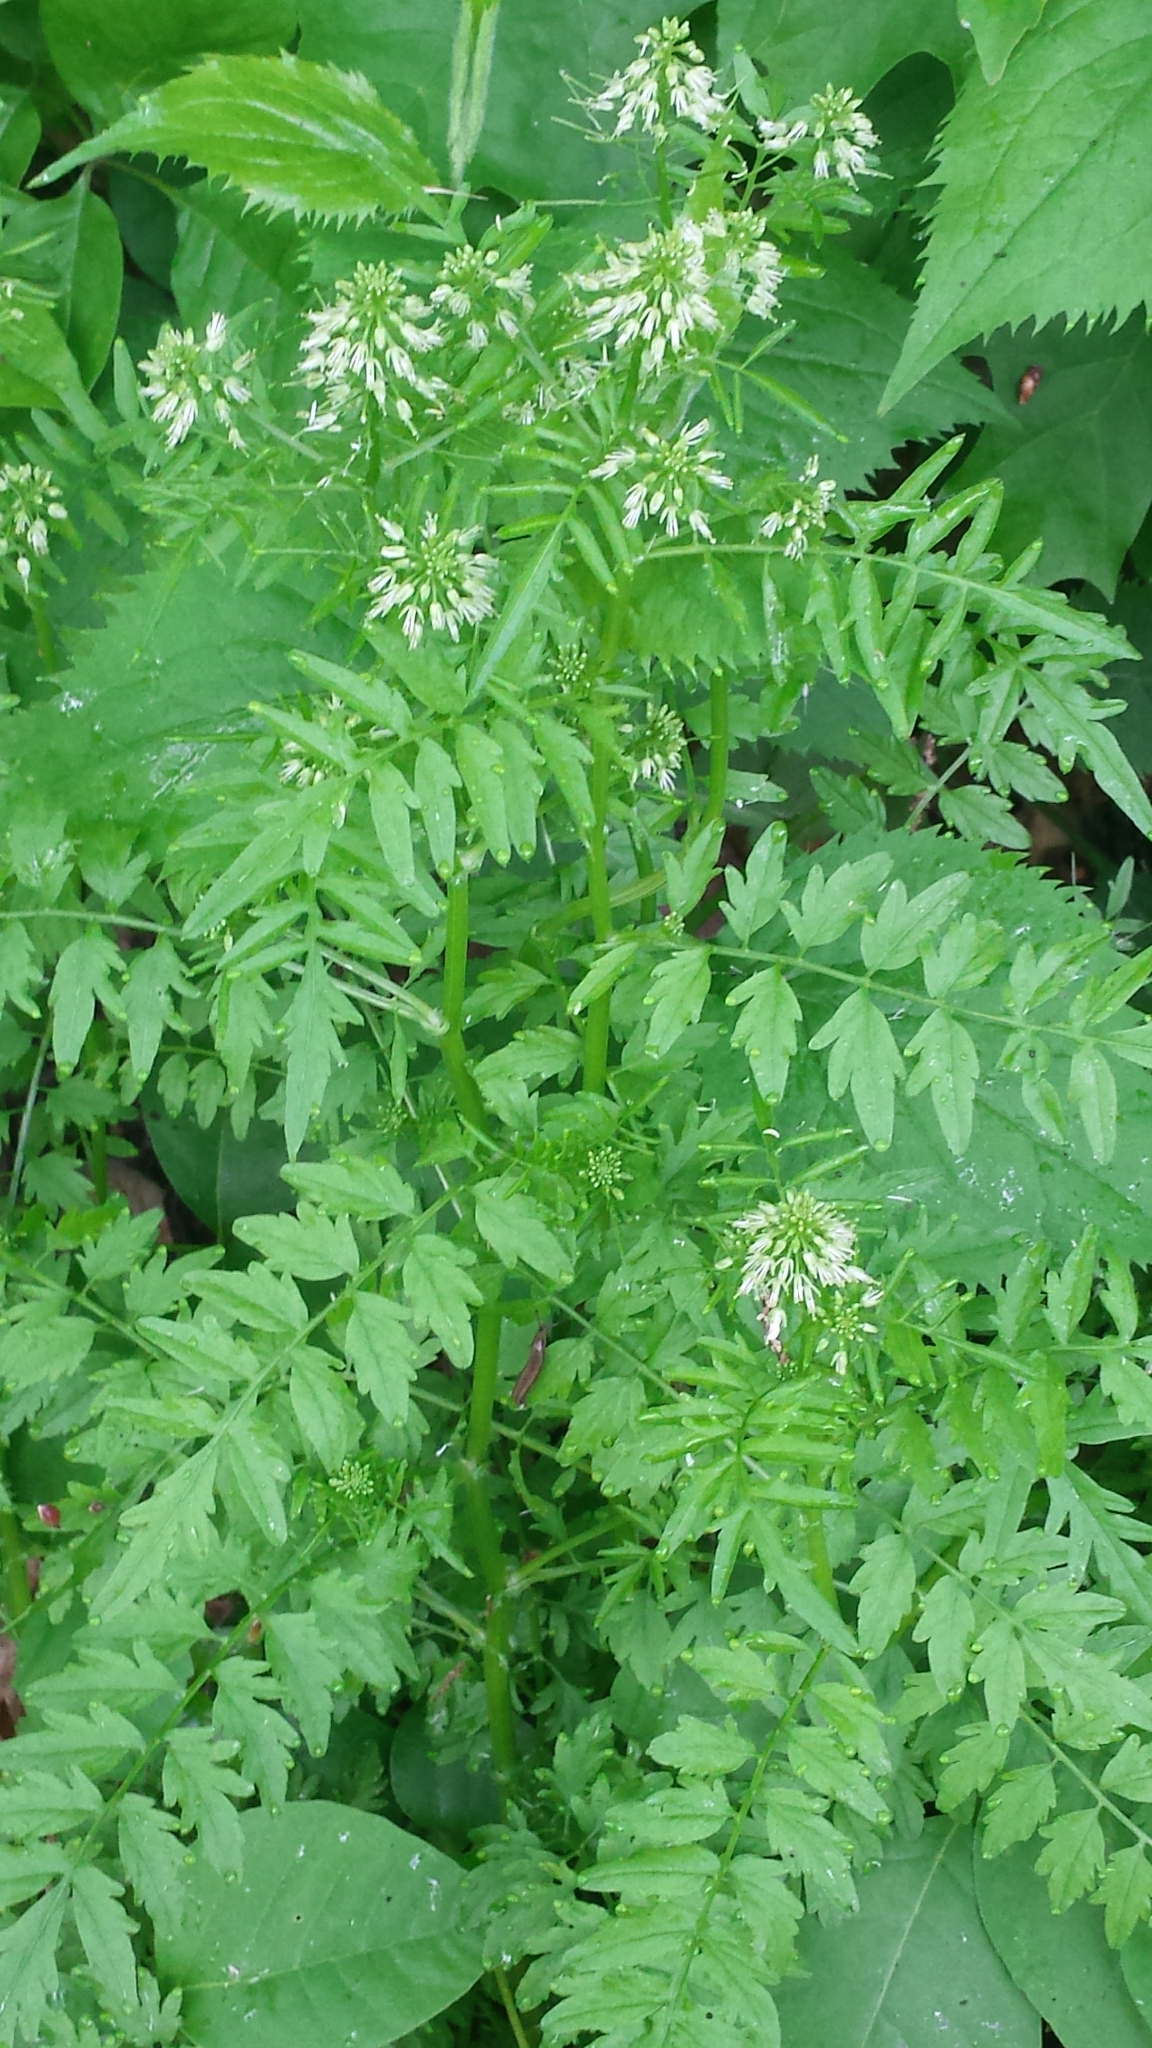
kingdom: Plantae
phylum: Tracheophyta
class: Magnoliopsida
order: Brassicales
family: Brassicaceae
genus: Cardamine
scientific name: Cardamine impatiens
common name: Narrow-leaved bitter-cress
